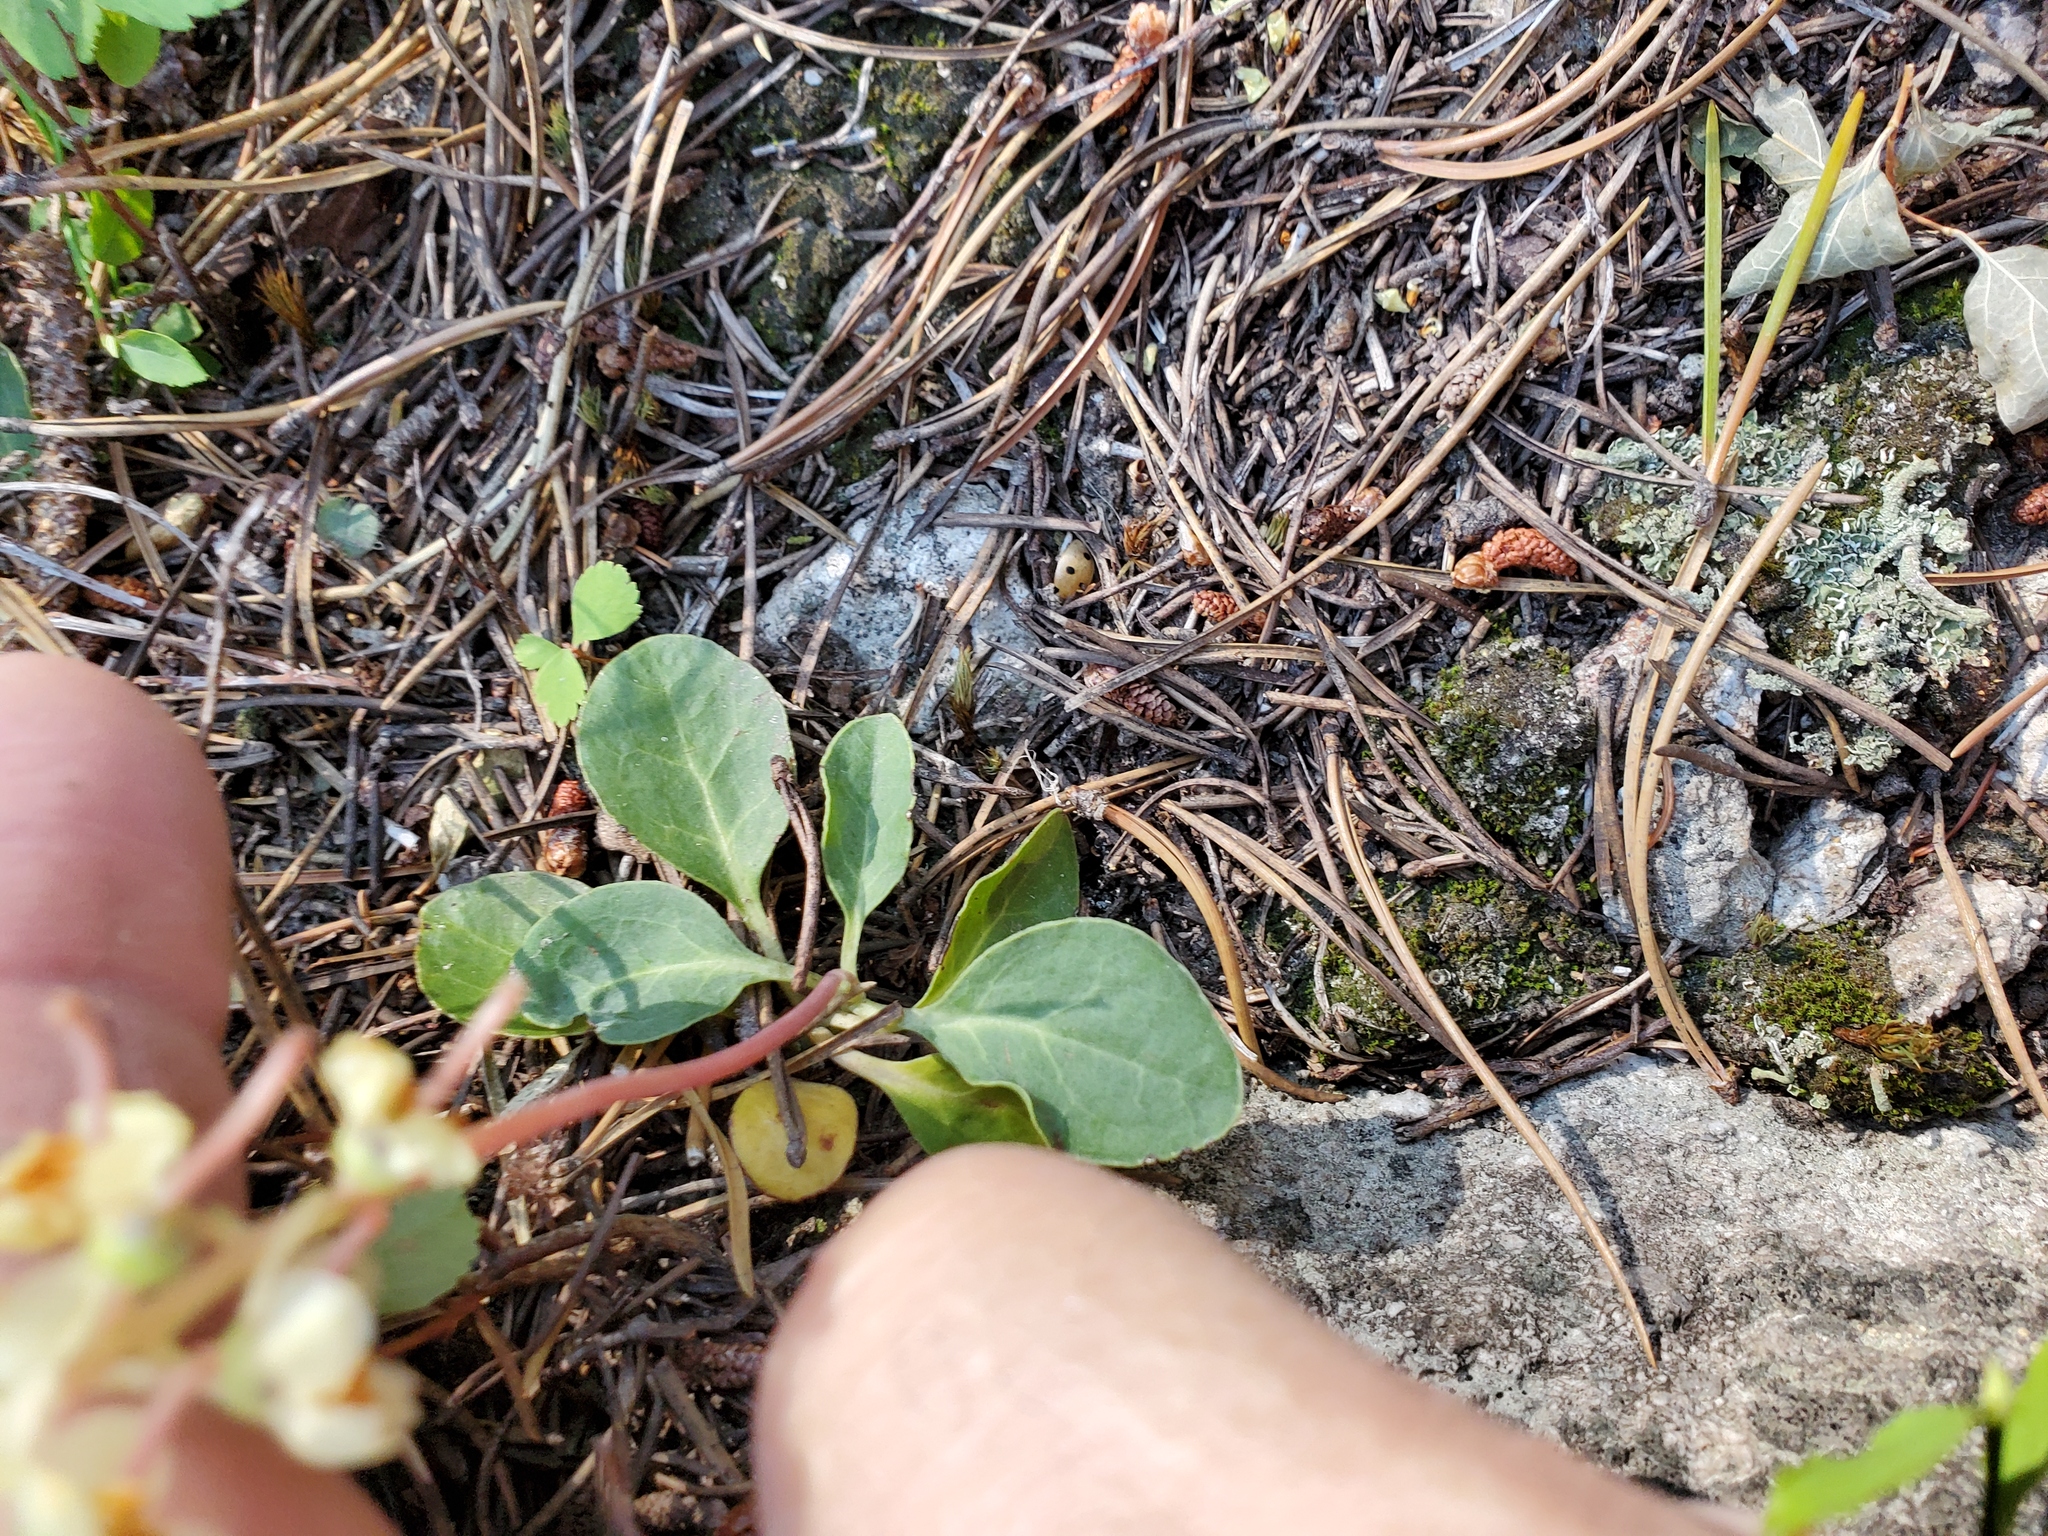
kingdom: Plantae
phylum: Tracheophyta
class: Magnoliopsida
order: Ericales
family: Ericaceae
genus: Pyrola
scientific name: Pyrola dentata
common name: Tooth-leaved wintergreen
